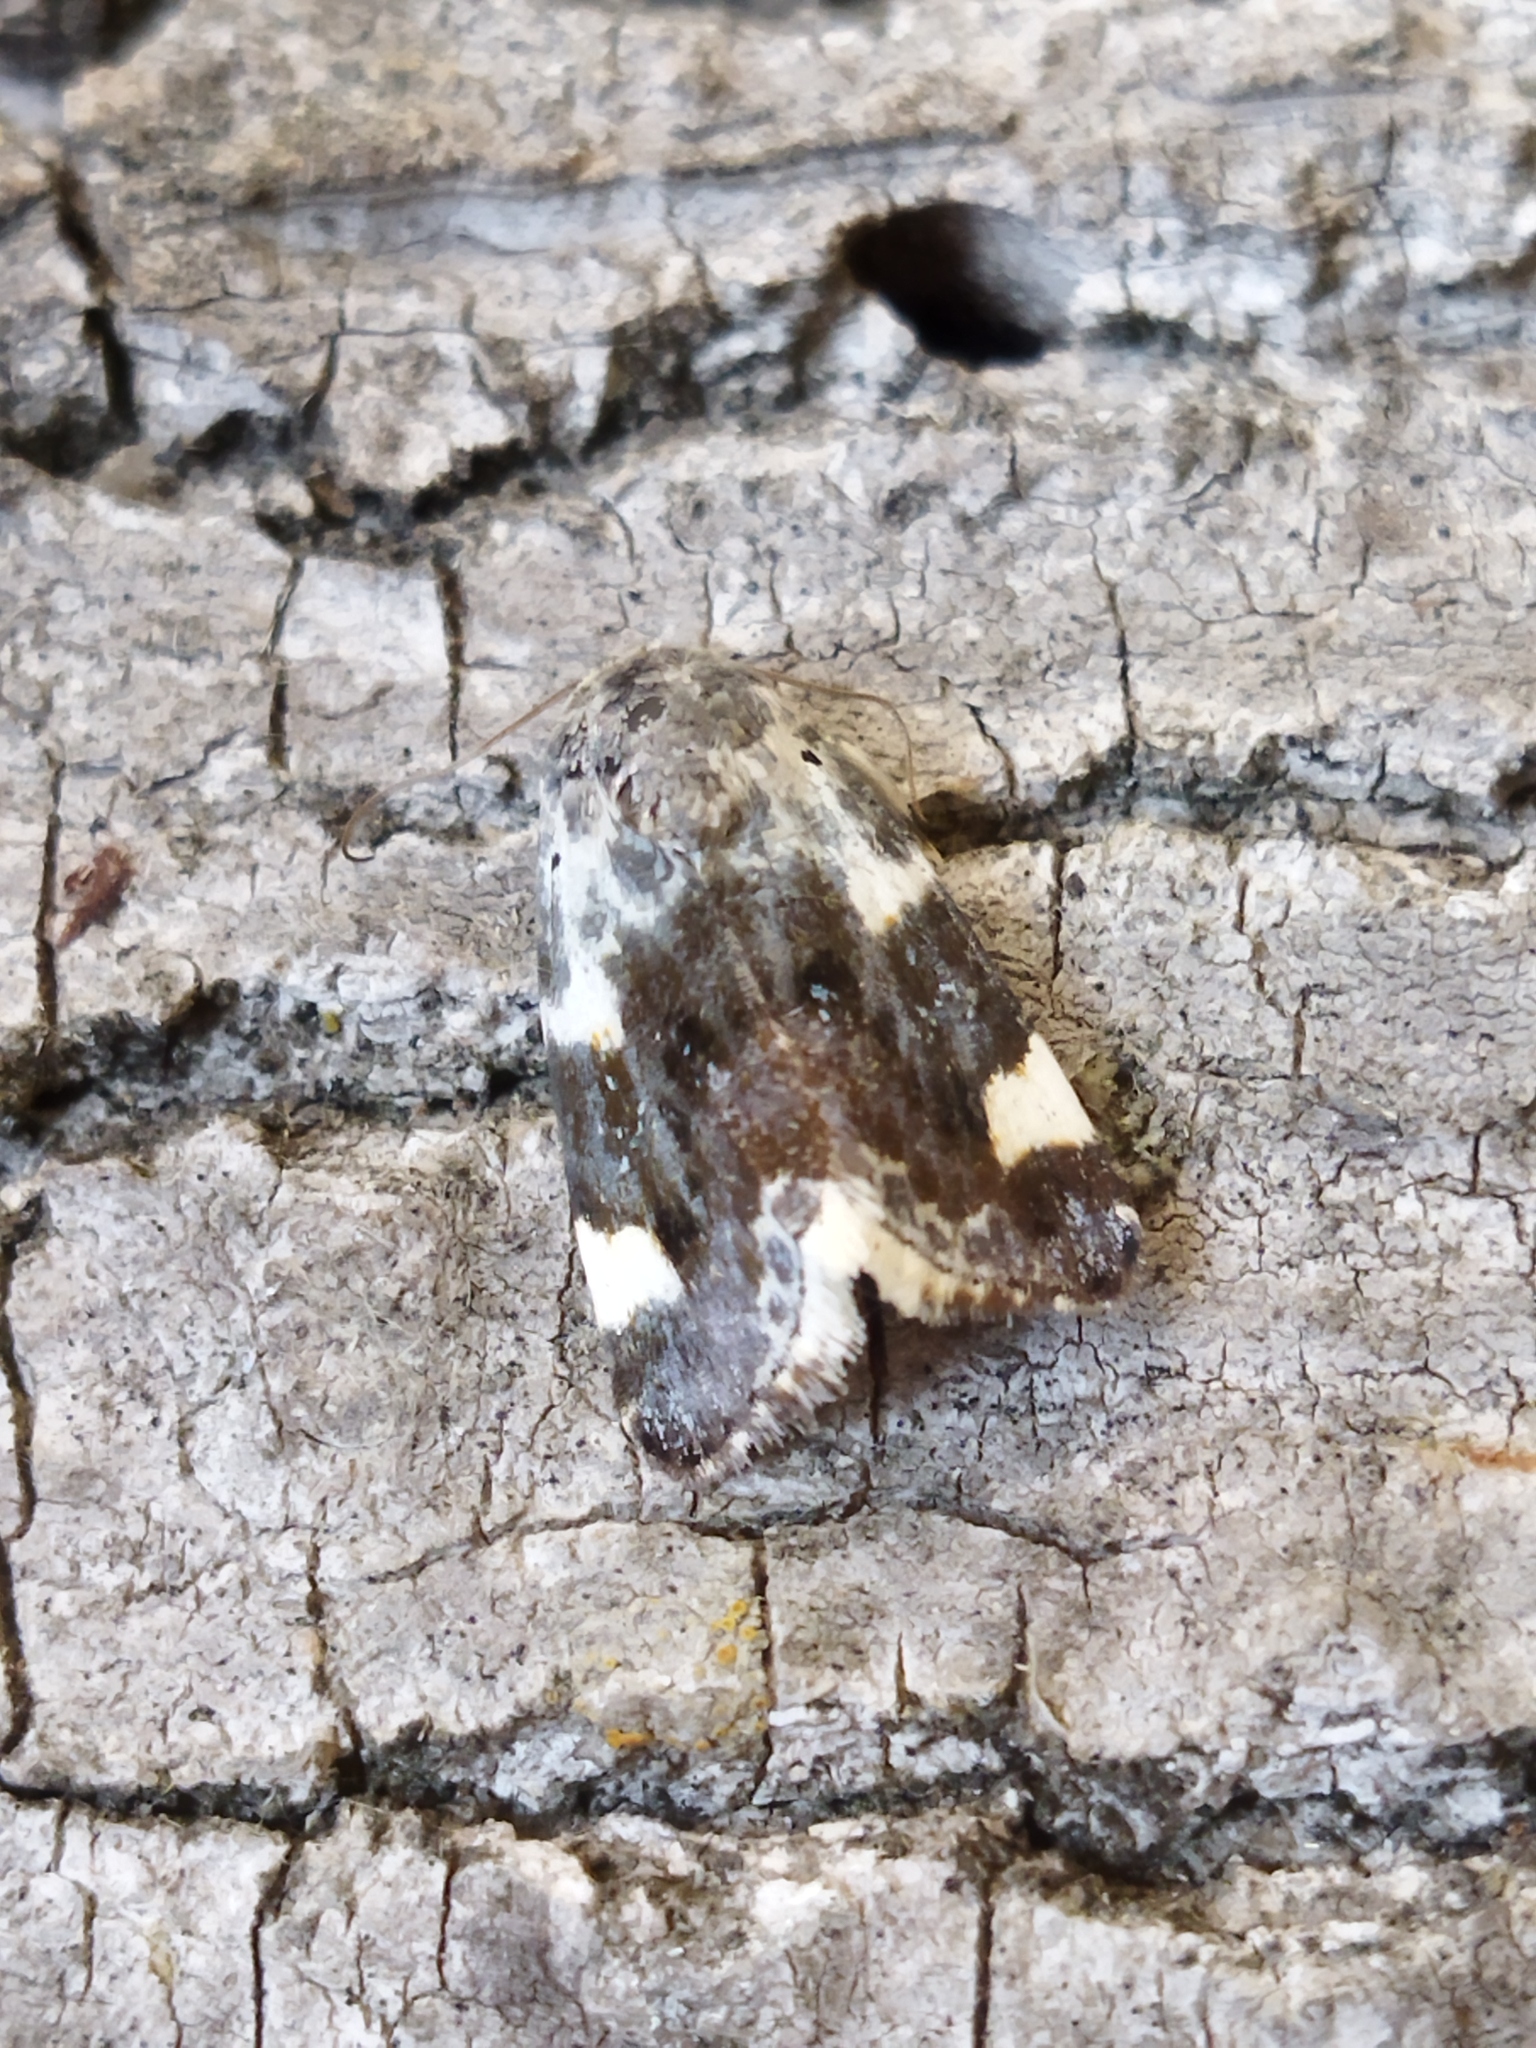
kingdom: Animalia
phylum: Arthropoda
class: Insecta
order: Lepidoptera
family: Noctuidae
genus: Acontia
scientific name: Acontia lucida
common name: Pale shoulder
